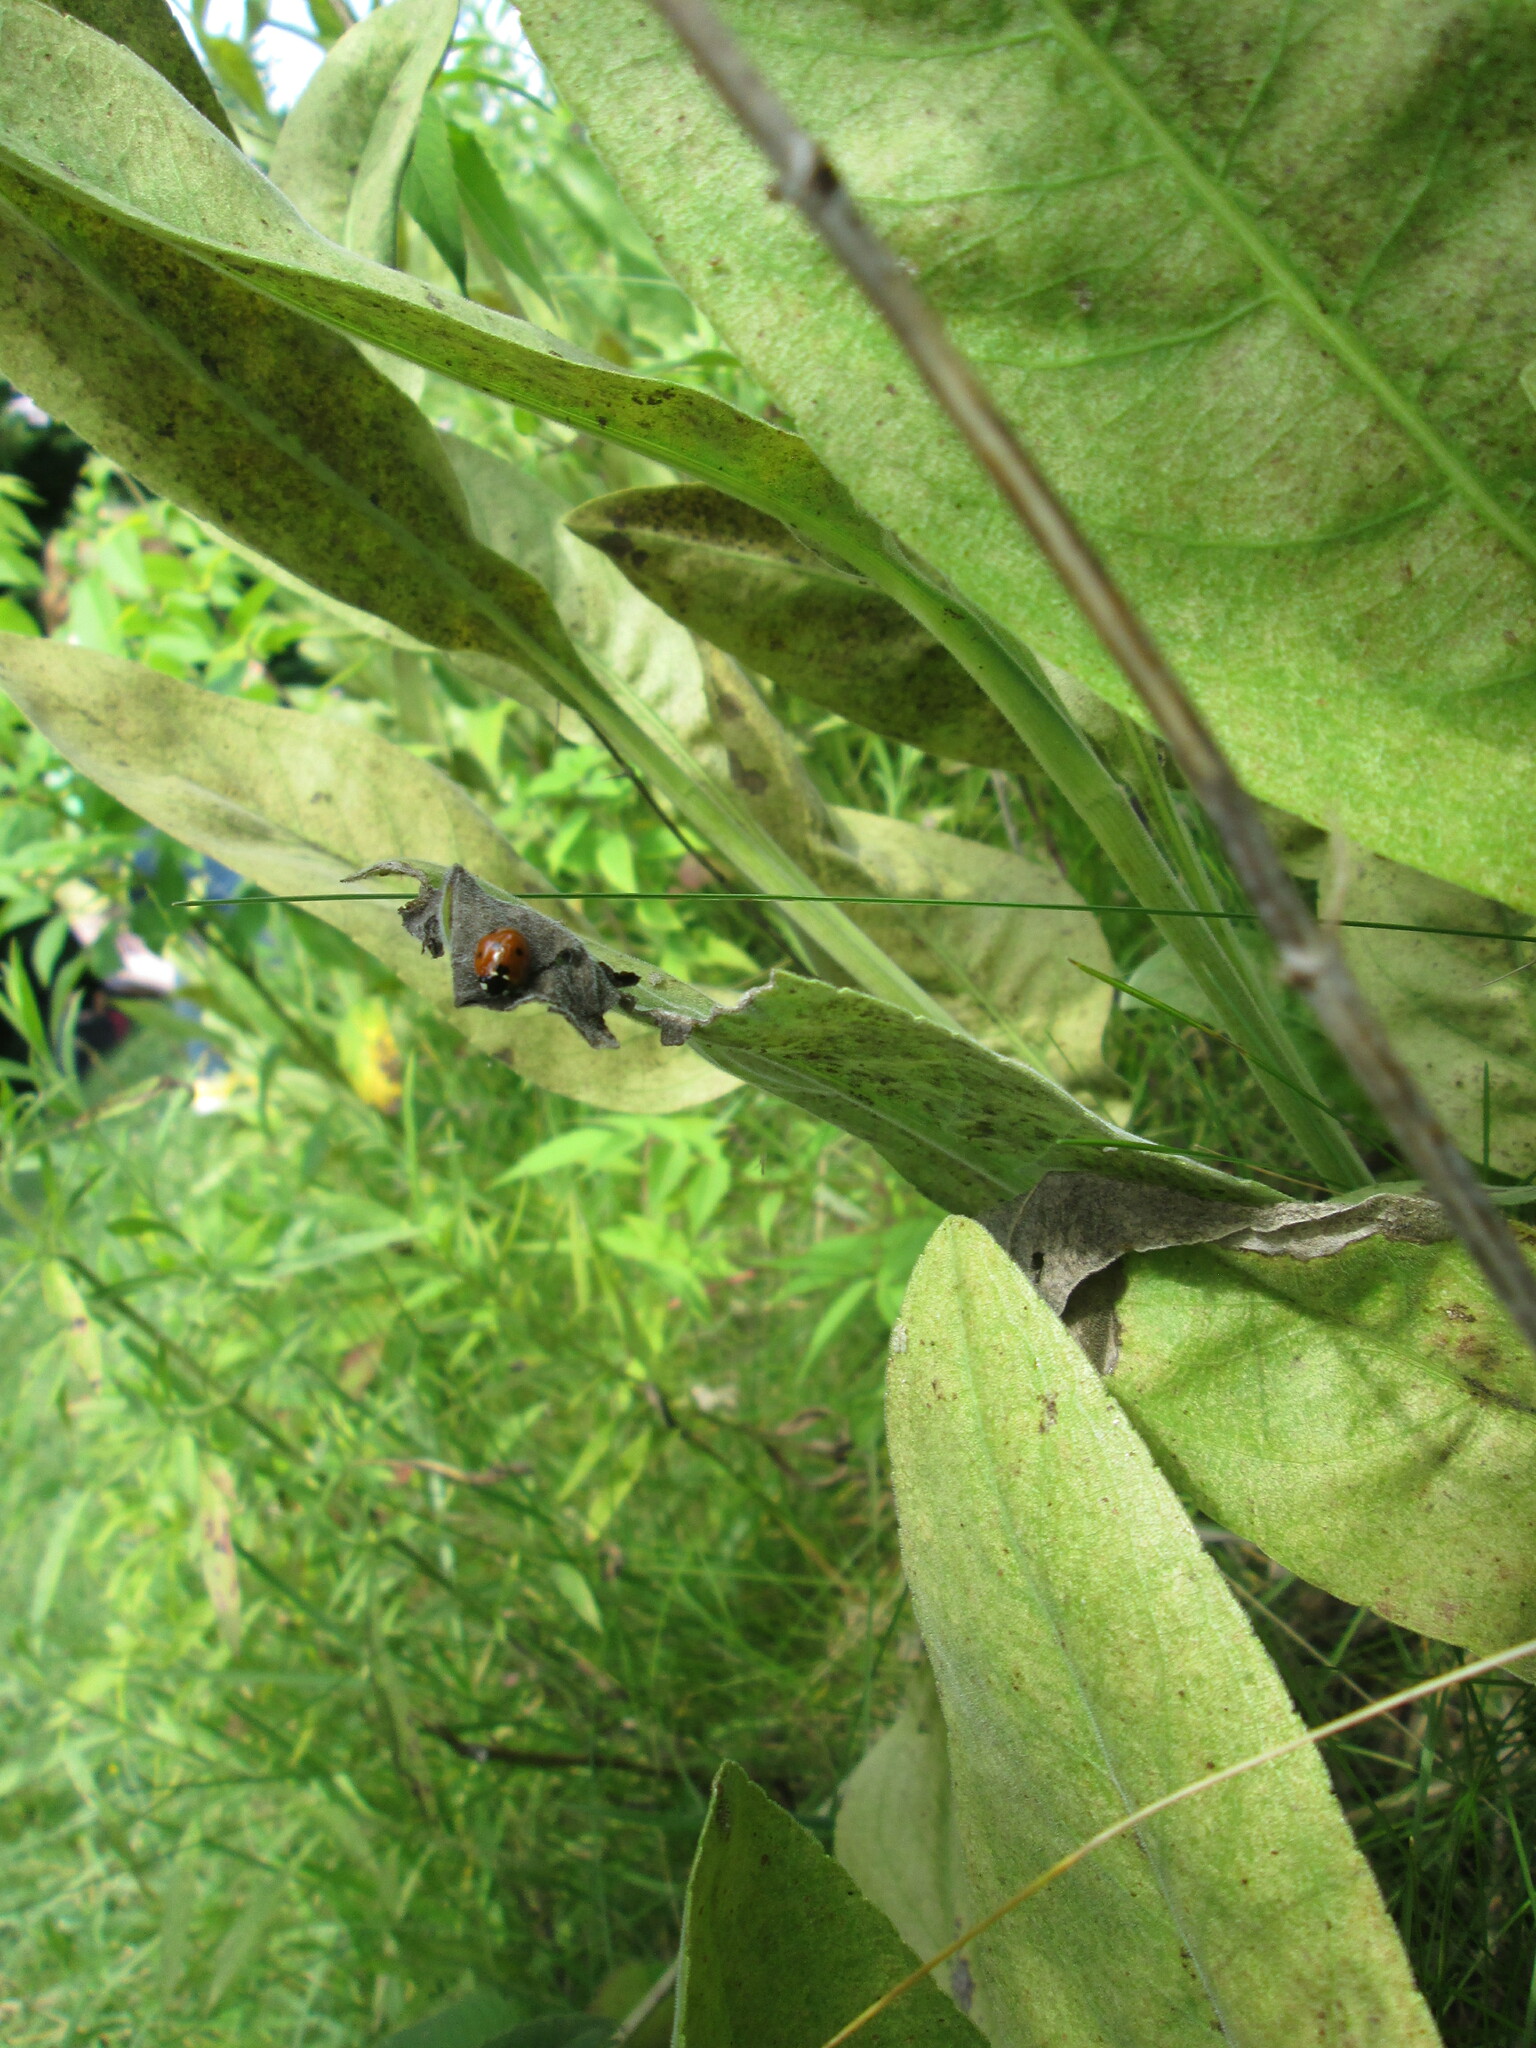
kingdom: Animalia
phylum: Arthropoda
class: Insecta
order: Coleoptera
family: Coccinellidae
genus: Coccinella
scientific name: Coccinella septempunctata
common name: Sevenspotted lady beetle
